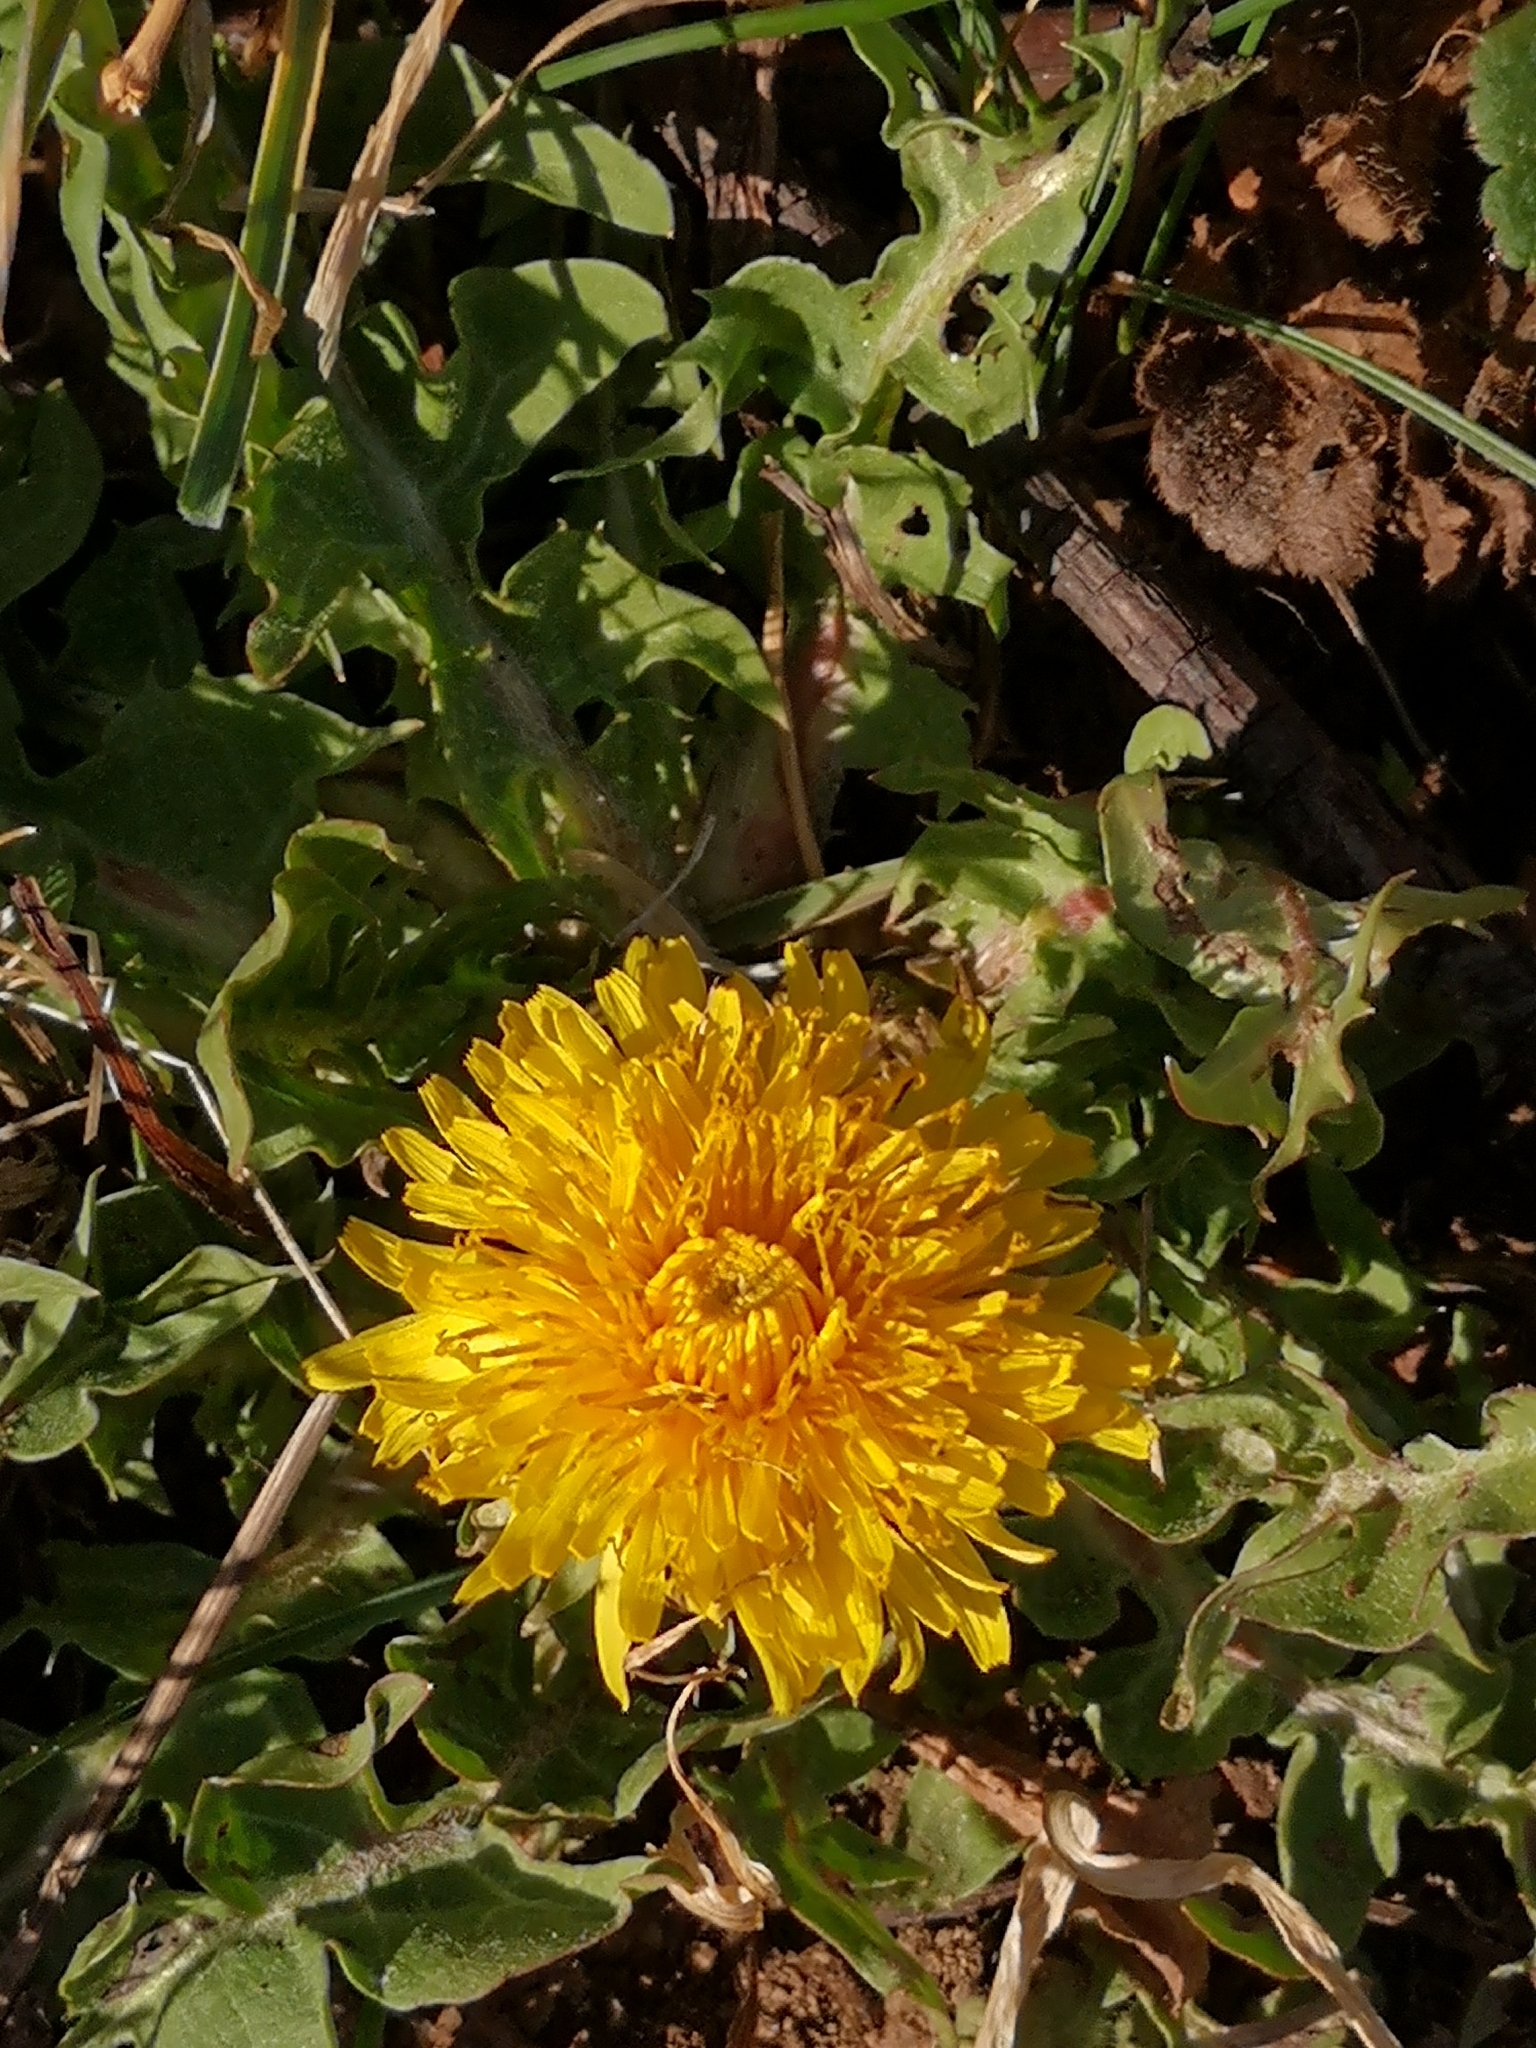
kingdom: Plantae
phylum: Tracheophyta
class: Magnoliopsida
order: Asterales
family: Asteraceae
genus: Taraxacum
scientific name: Taraxacum
